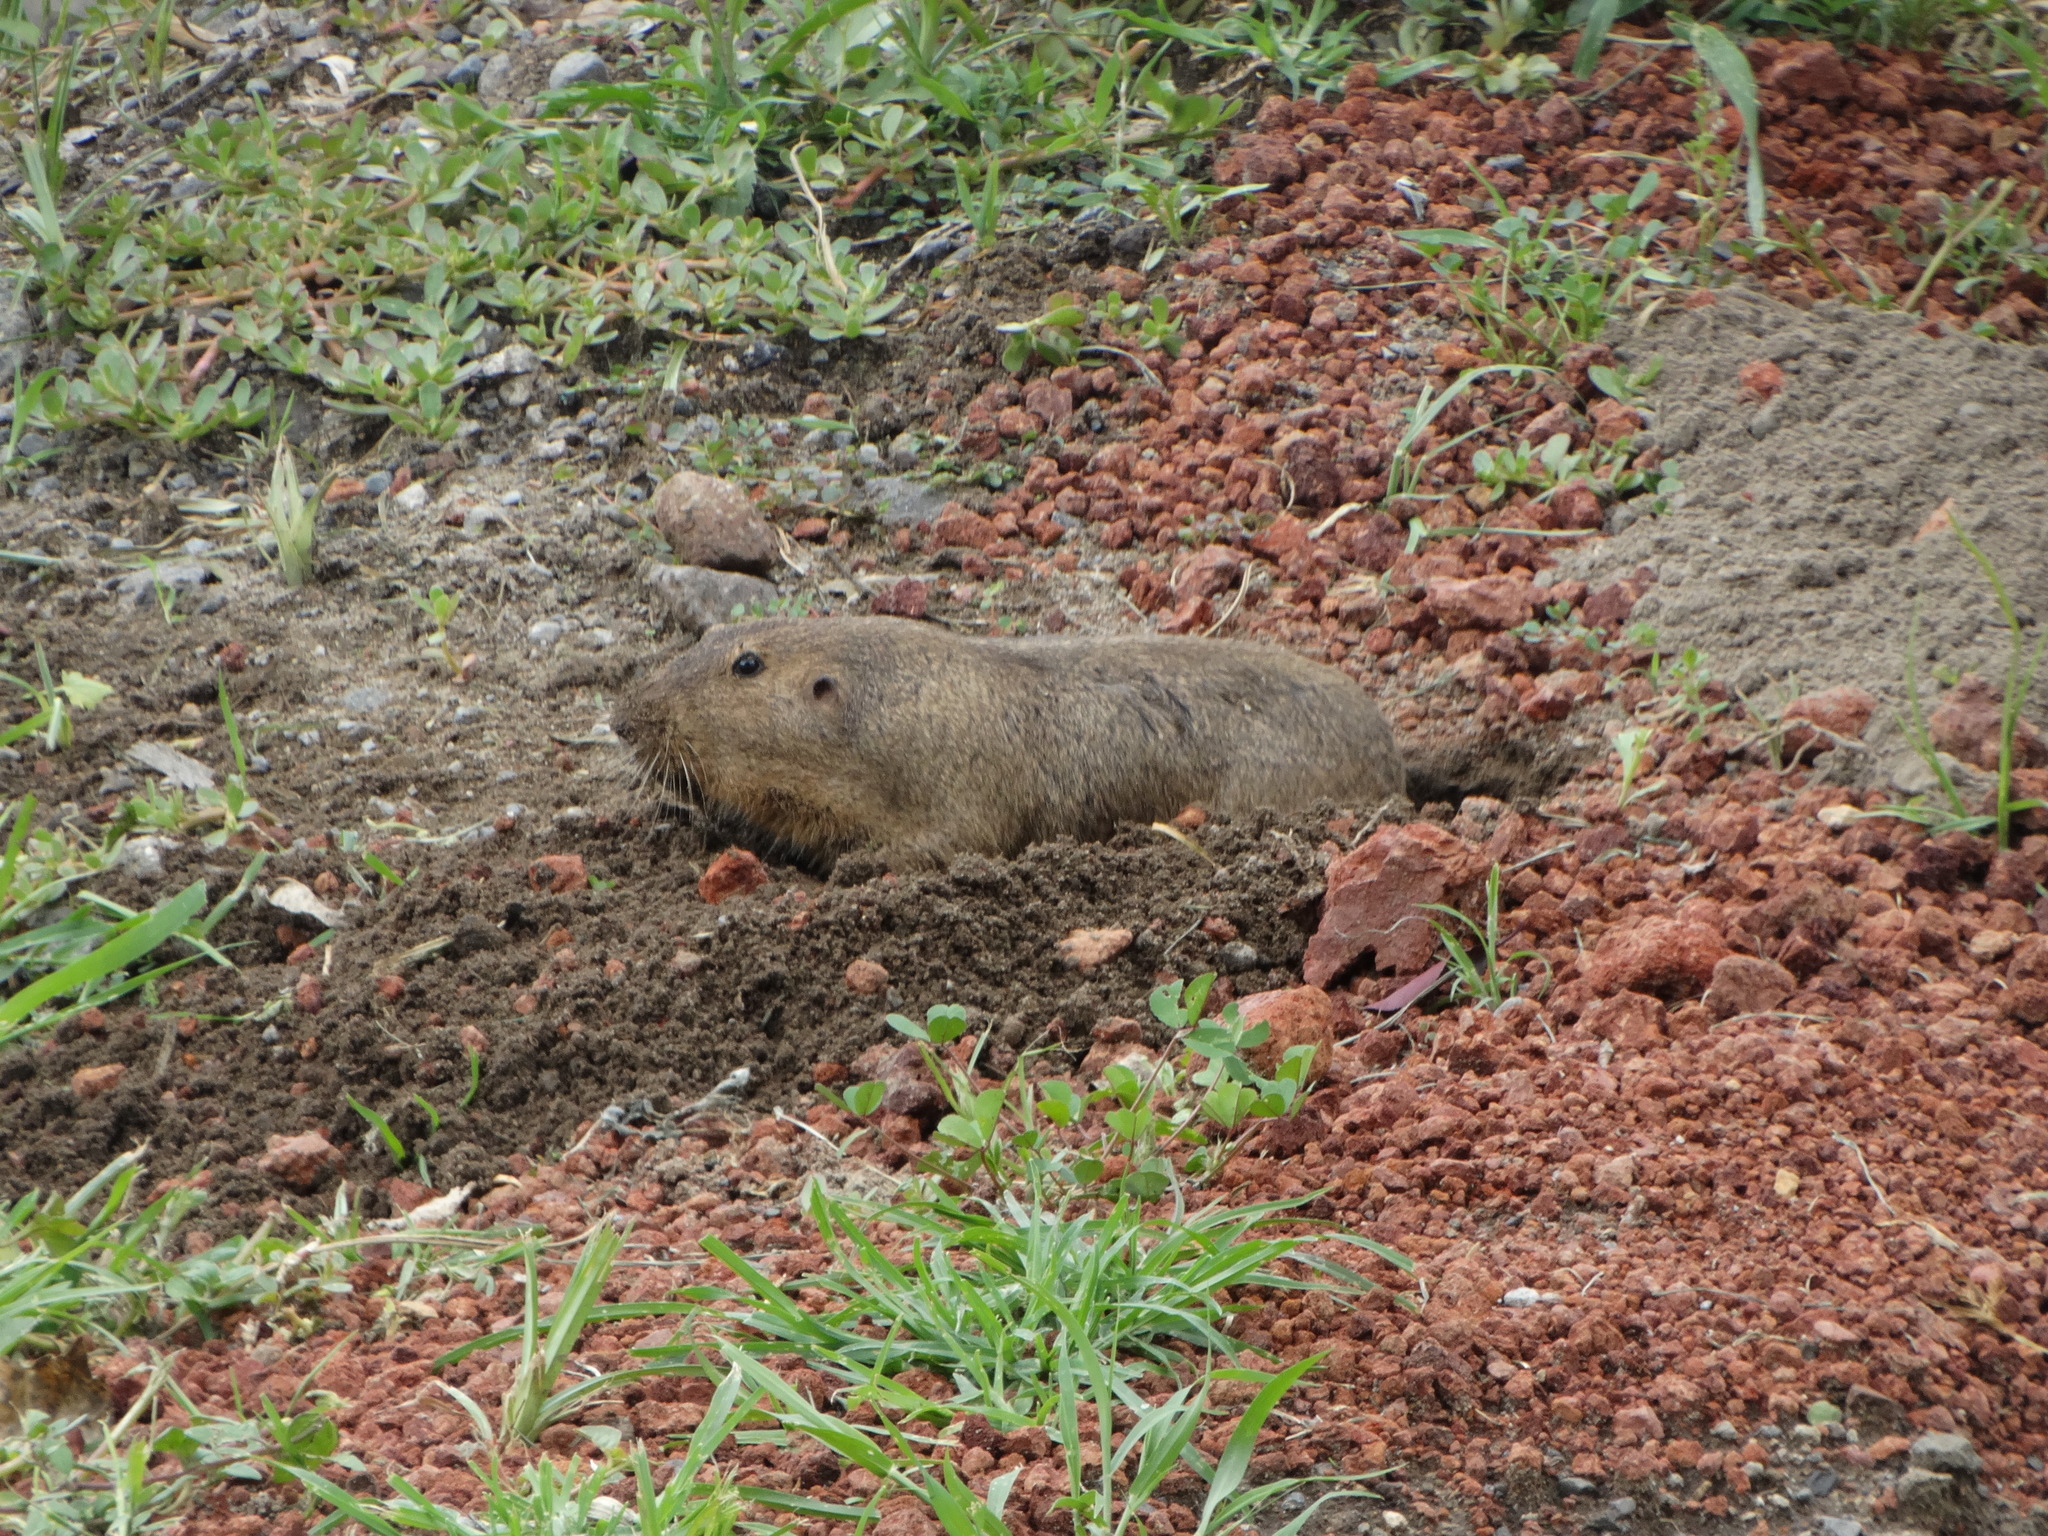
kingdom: Animalia
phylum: Chordata
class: Mammalia
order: Rodentia
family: Geomyidae
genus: Cratogeomys
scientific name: Cratogeomys fulvescens
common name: Oriental basin pocket gopher
